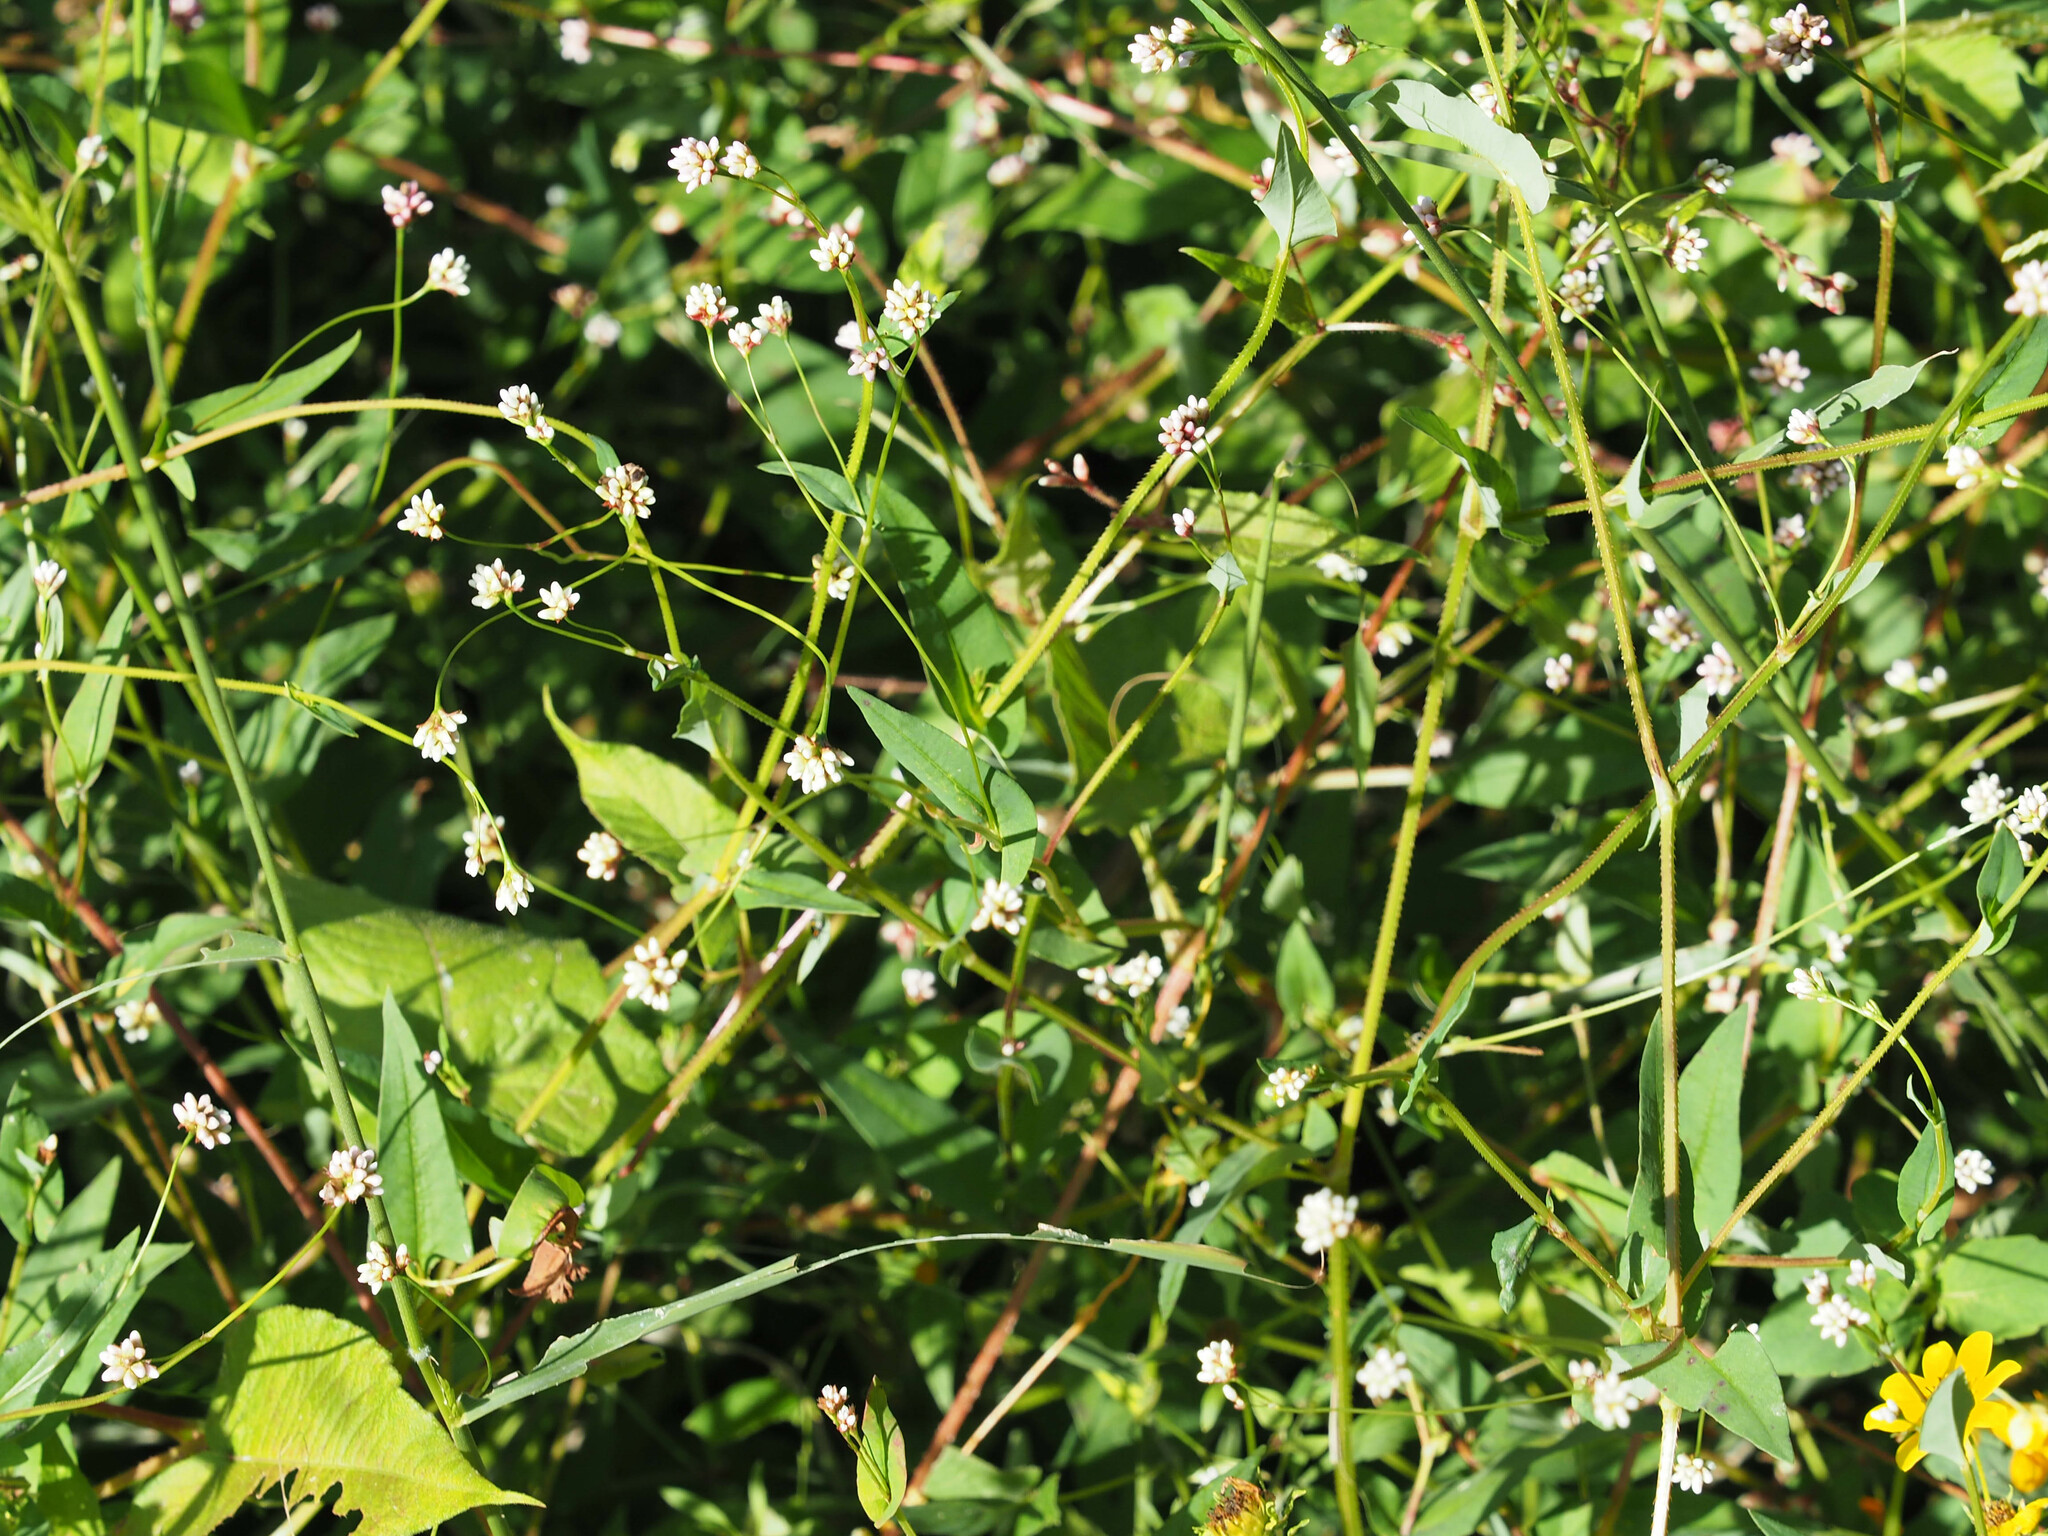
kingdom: Plantae
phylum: Tracheophyta
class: Magnoliopsida
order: Caryophyllales
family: Polygonaceae
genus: Persicaria
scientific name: Persicaria sagittata
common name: American tearthumb
